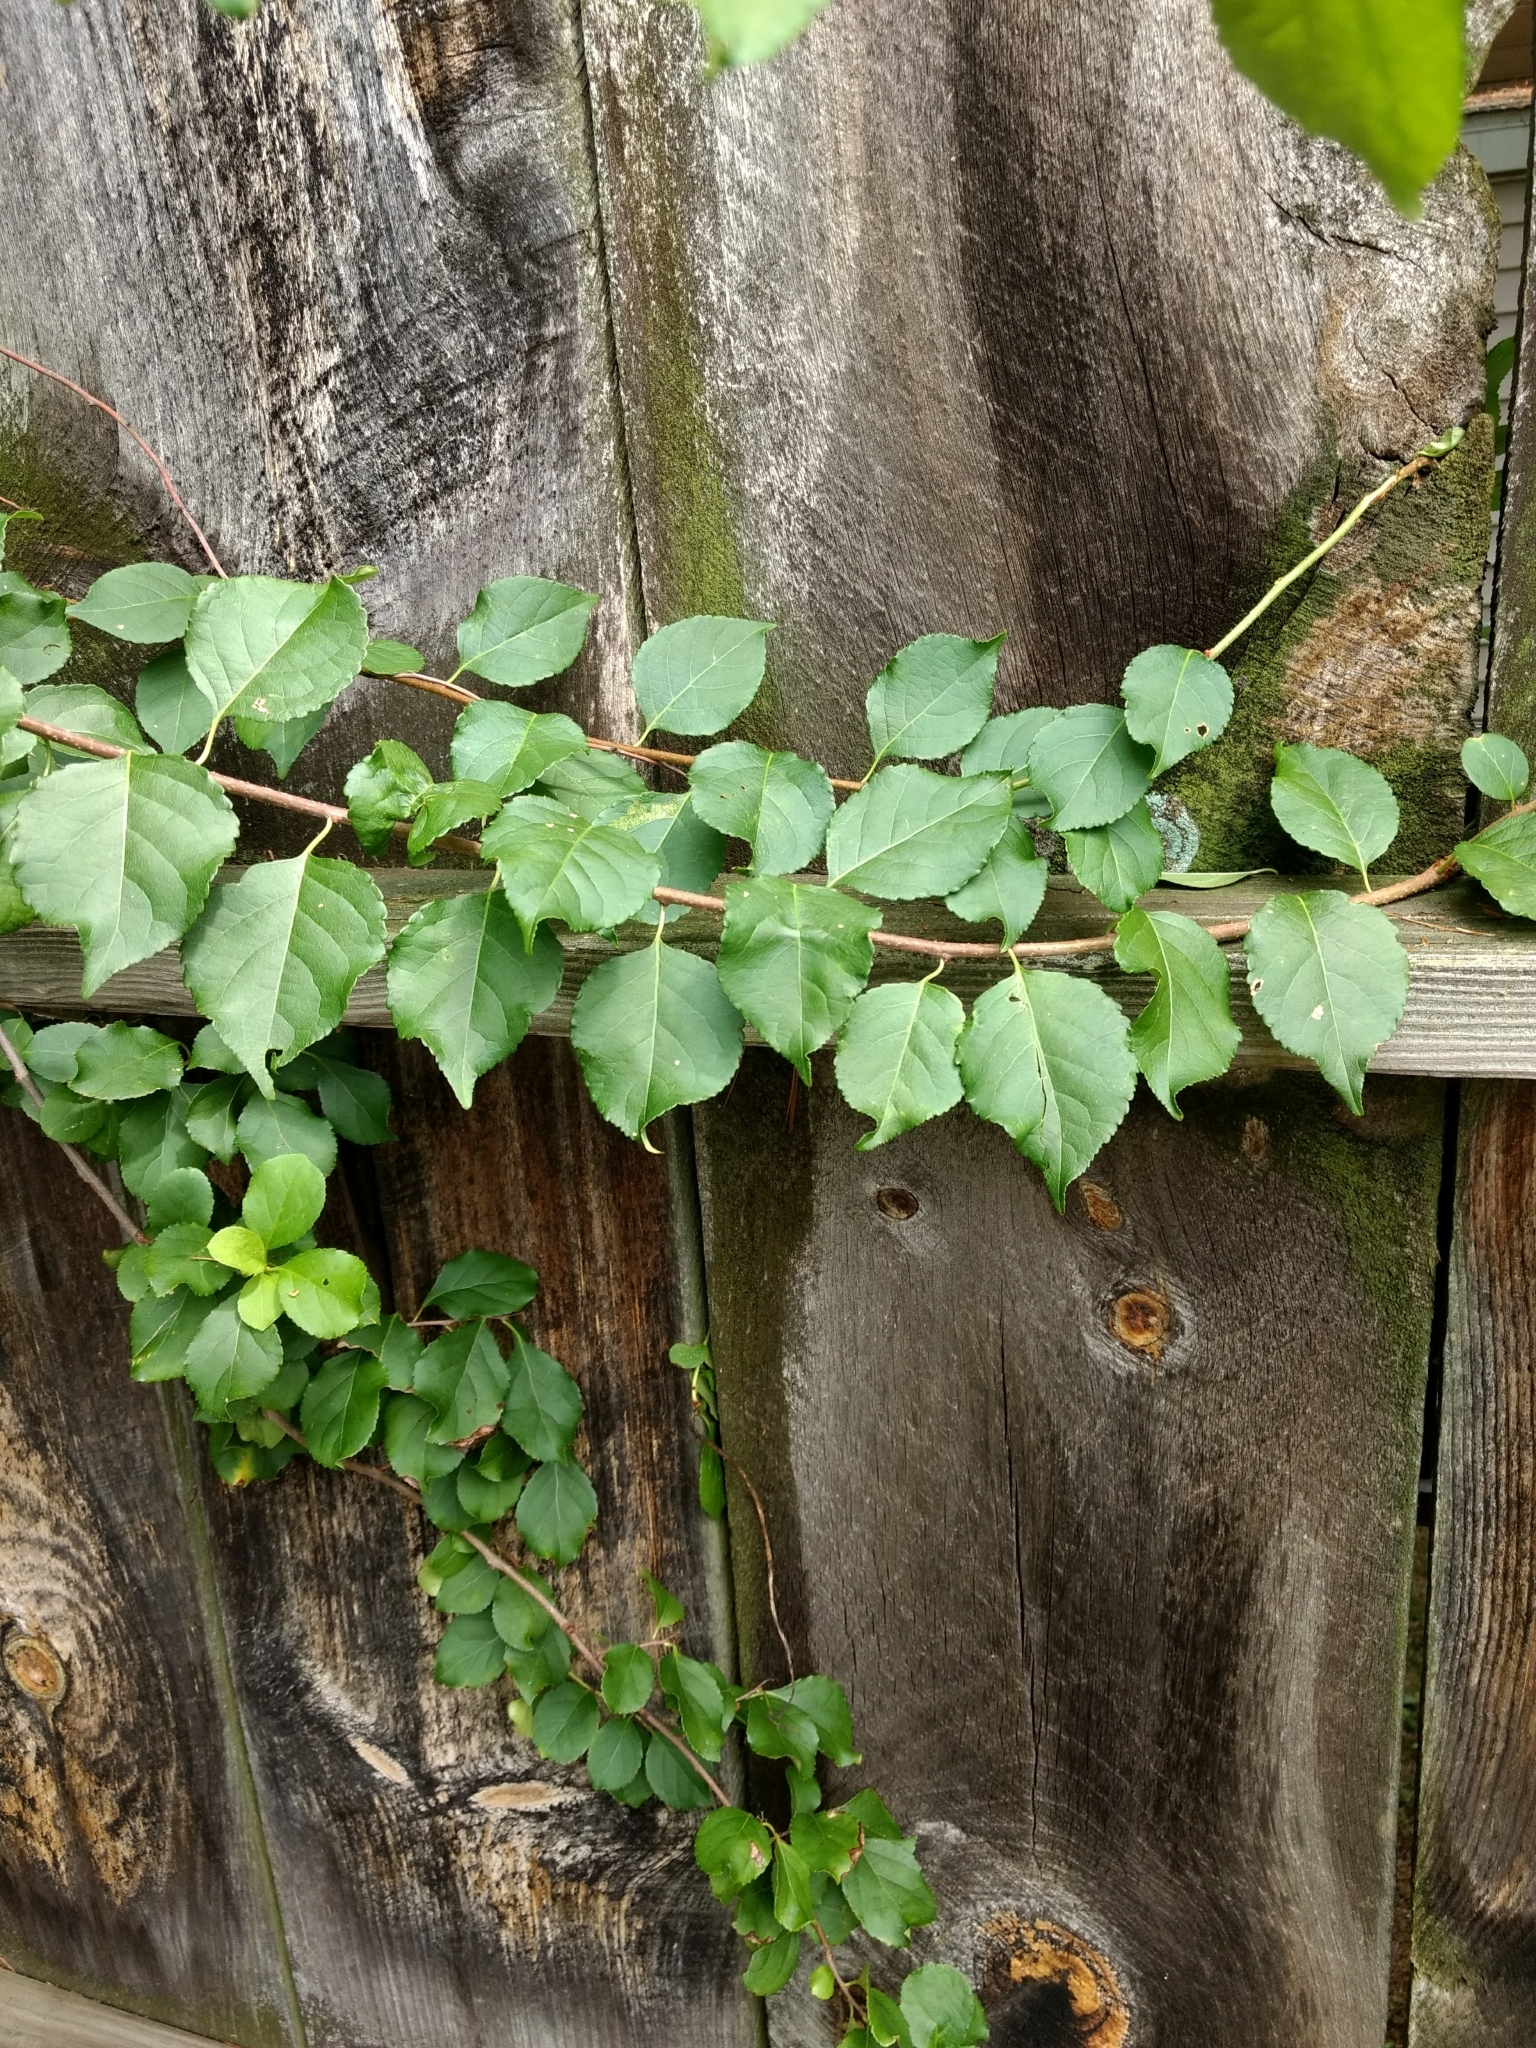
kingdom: Plantae
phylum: Tracheophyta
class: Magnoliopsida
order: Celastrales
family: Celastraceae
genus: Celastrus
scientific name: Celastrus orbiculatus
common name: Oriental bittersweet
